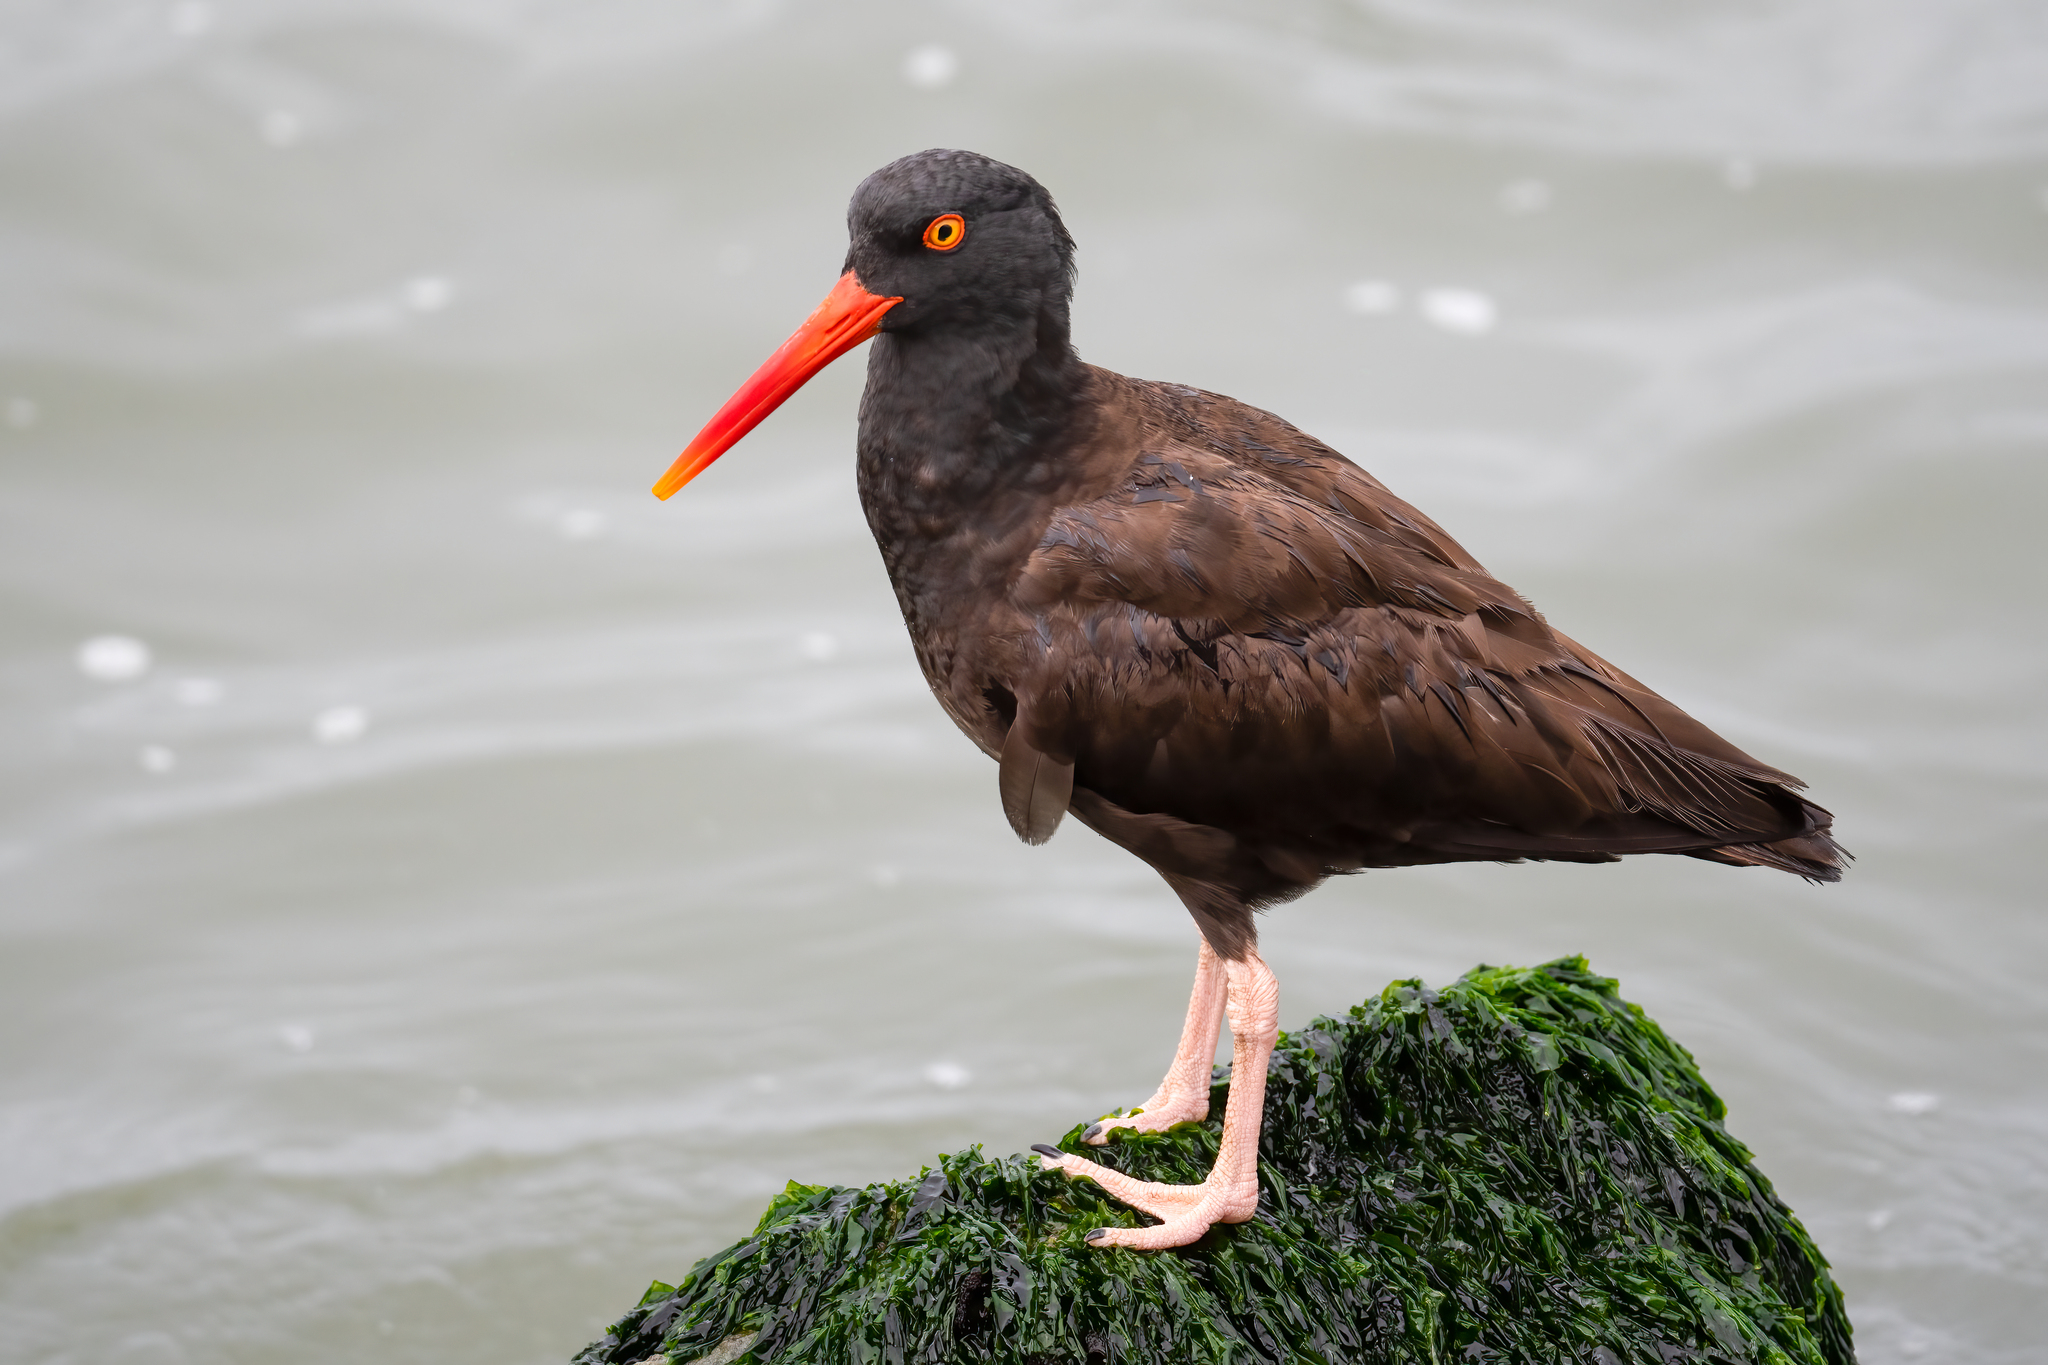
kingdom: Animalia
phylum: Chordata
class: Aves
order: Charadriiformes
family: Haematopodidae
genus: Haematopus
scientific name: Haematopus bachmani
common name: Black oystercatcher
